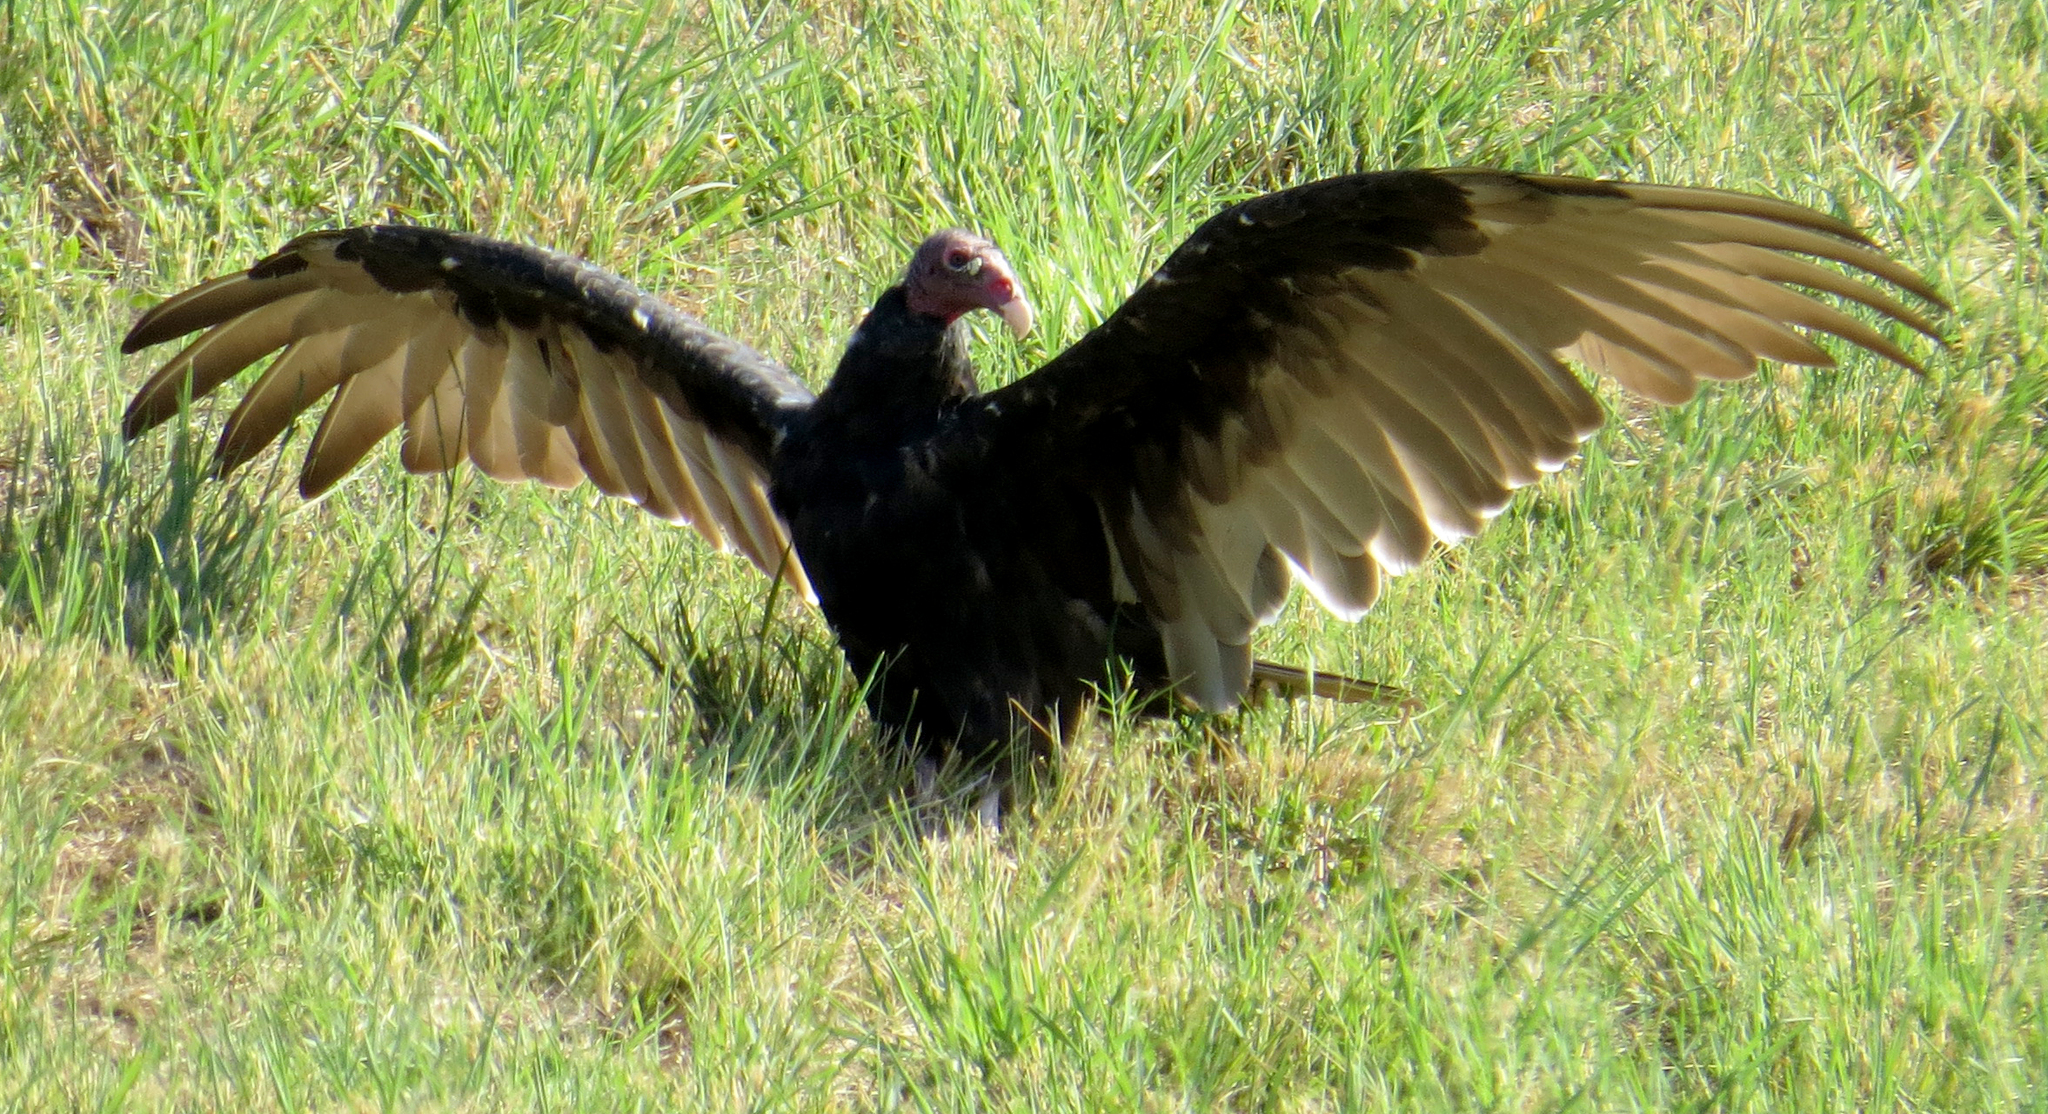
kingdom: Animalia
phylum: Chordata
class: Aves
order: Accipitriformes
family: Cathartidae
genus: Cathartes
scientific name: Cathartes aura
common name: Turkey vulture
